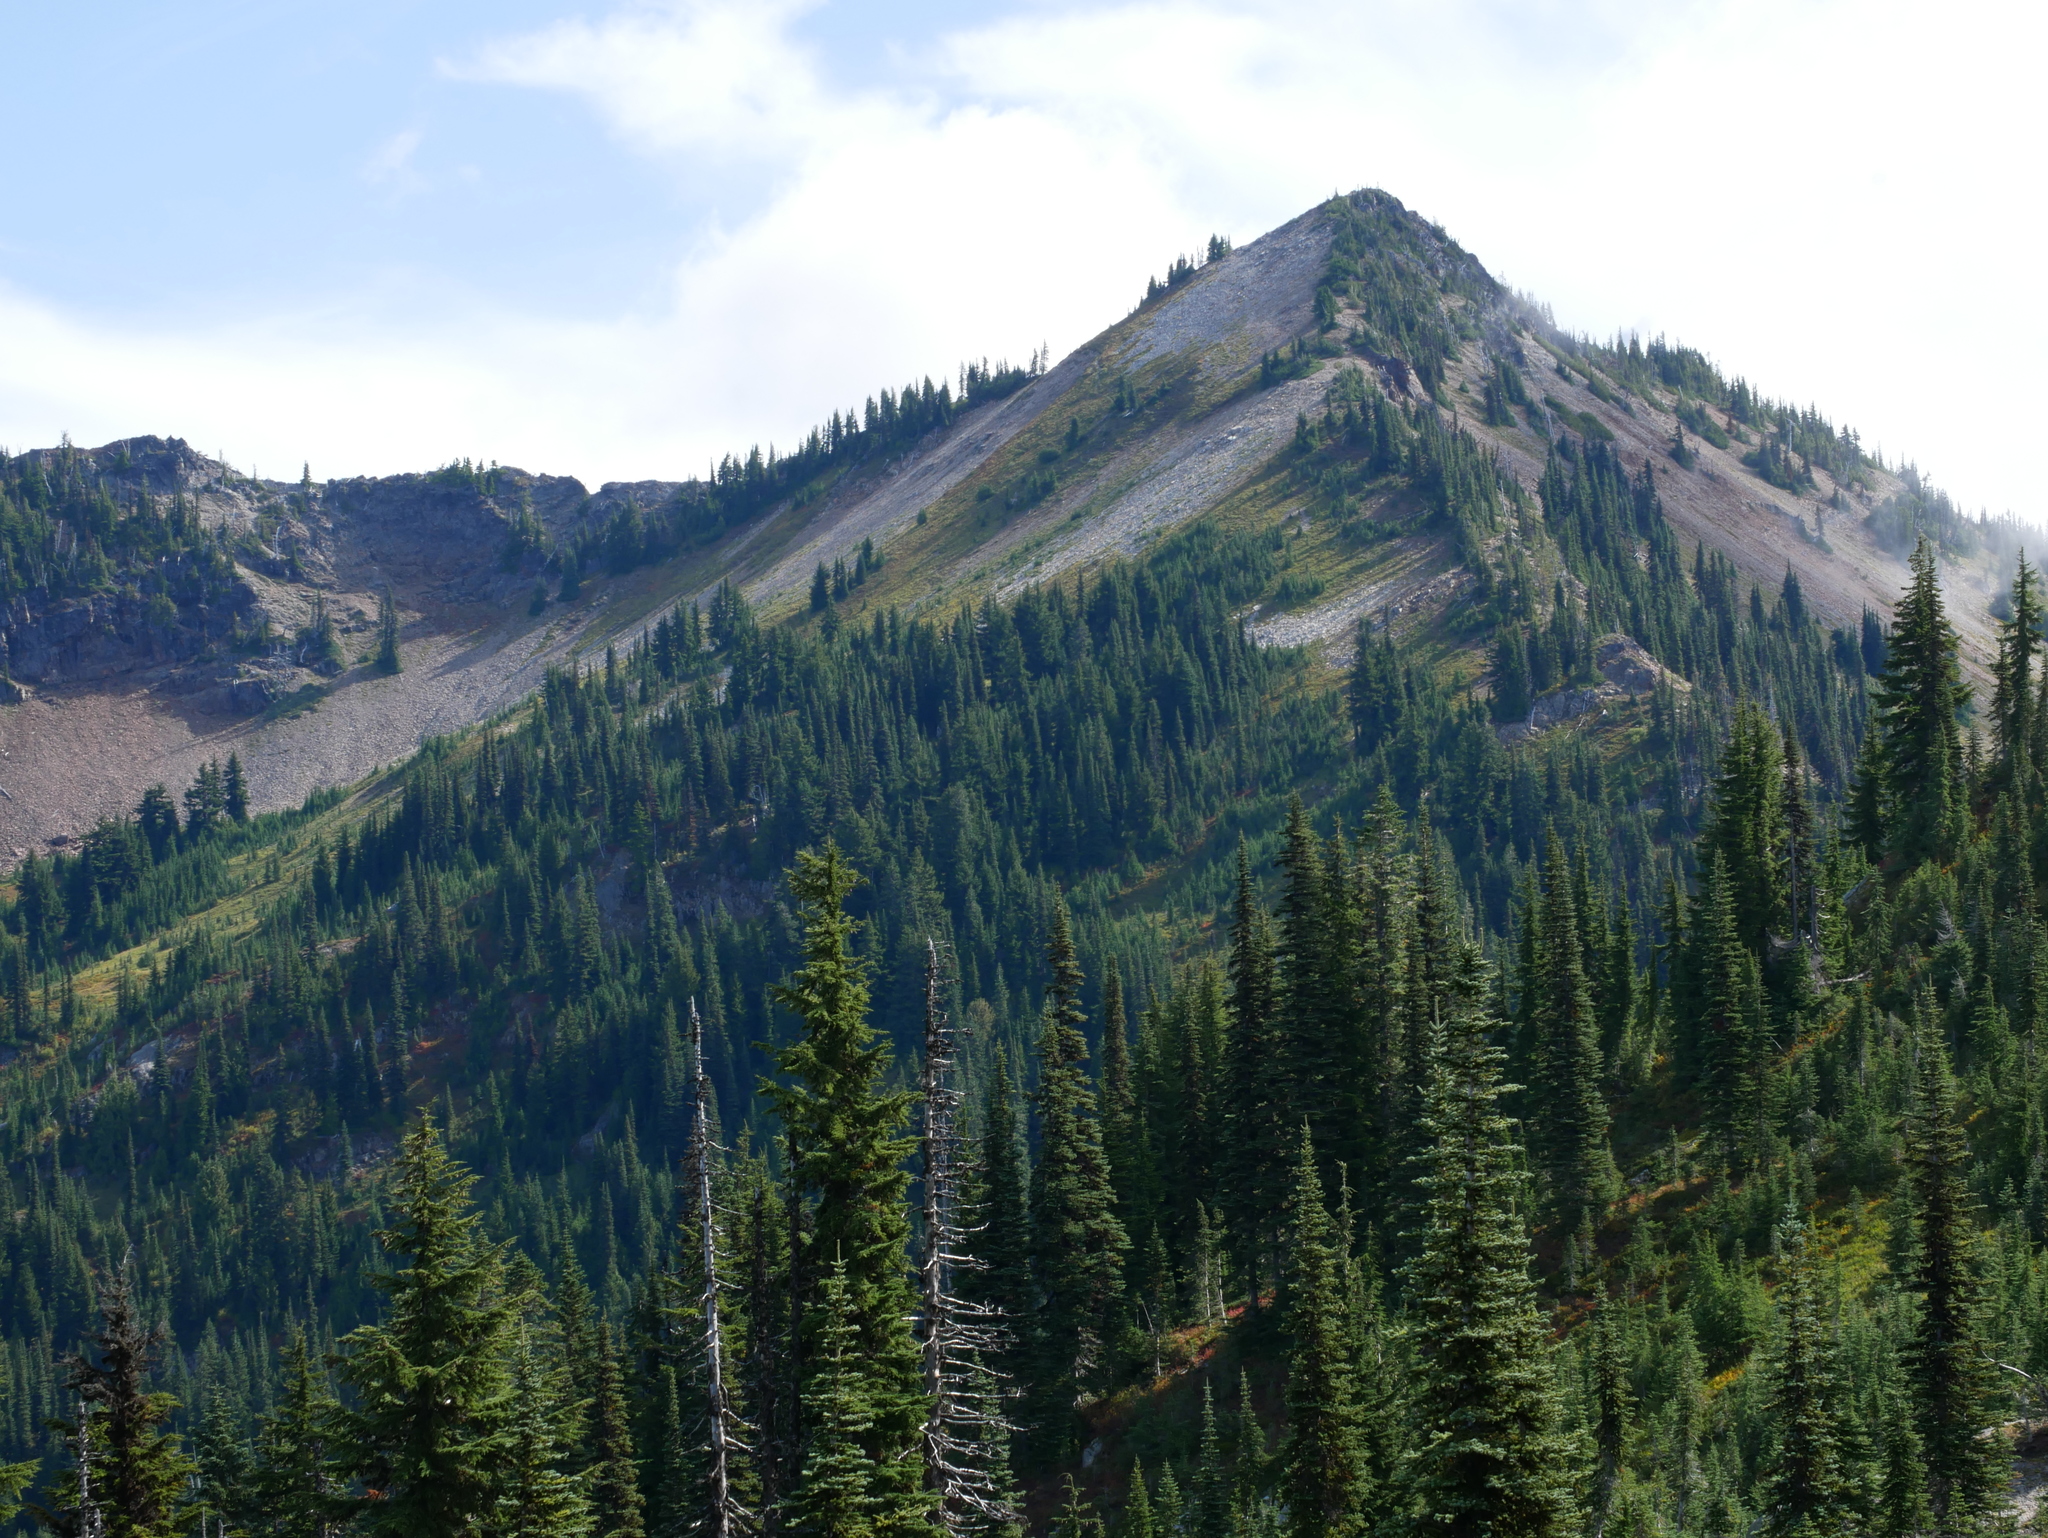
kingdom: Plantae
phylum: Tracheophyta
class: Pinopsida
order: Pinales
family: Pinaceae
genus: Abies
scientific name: Abies lasiocarpa
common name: Subalpine fir
